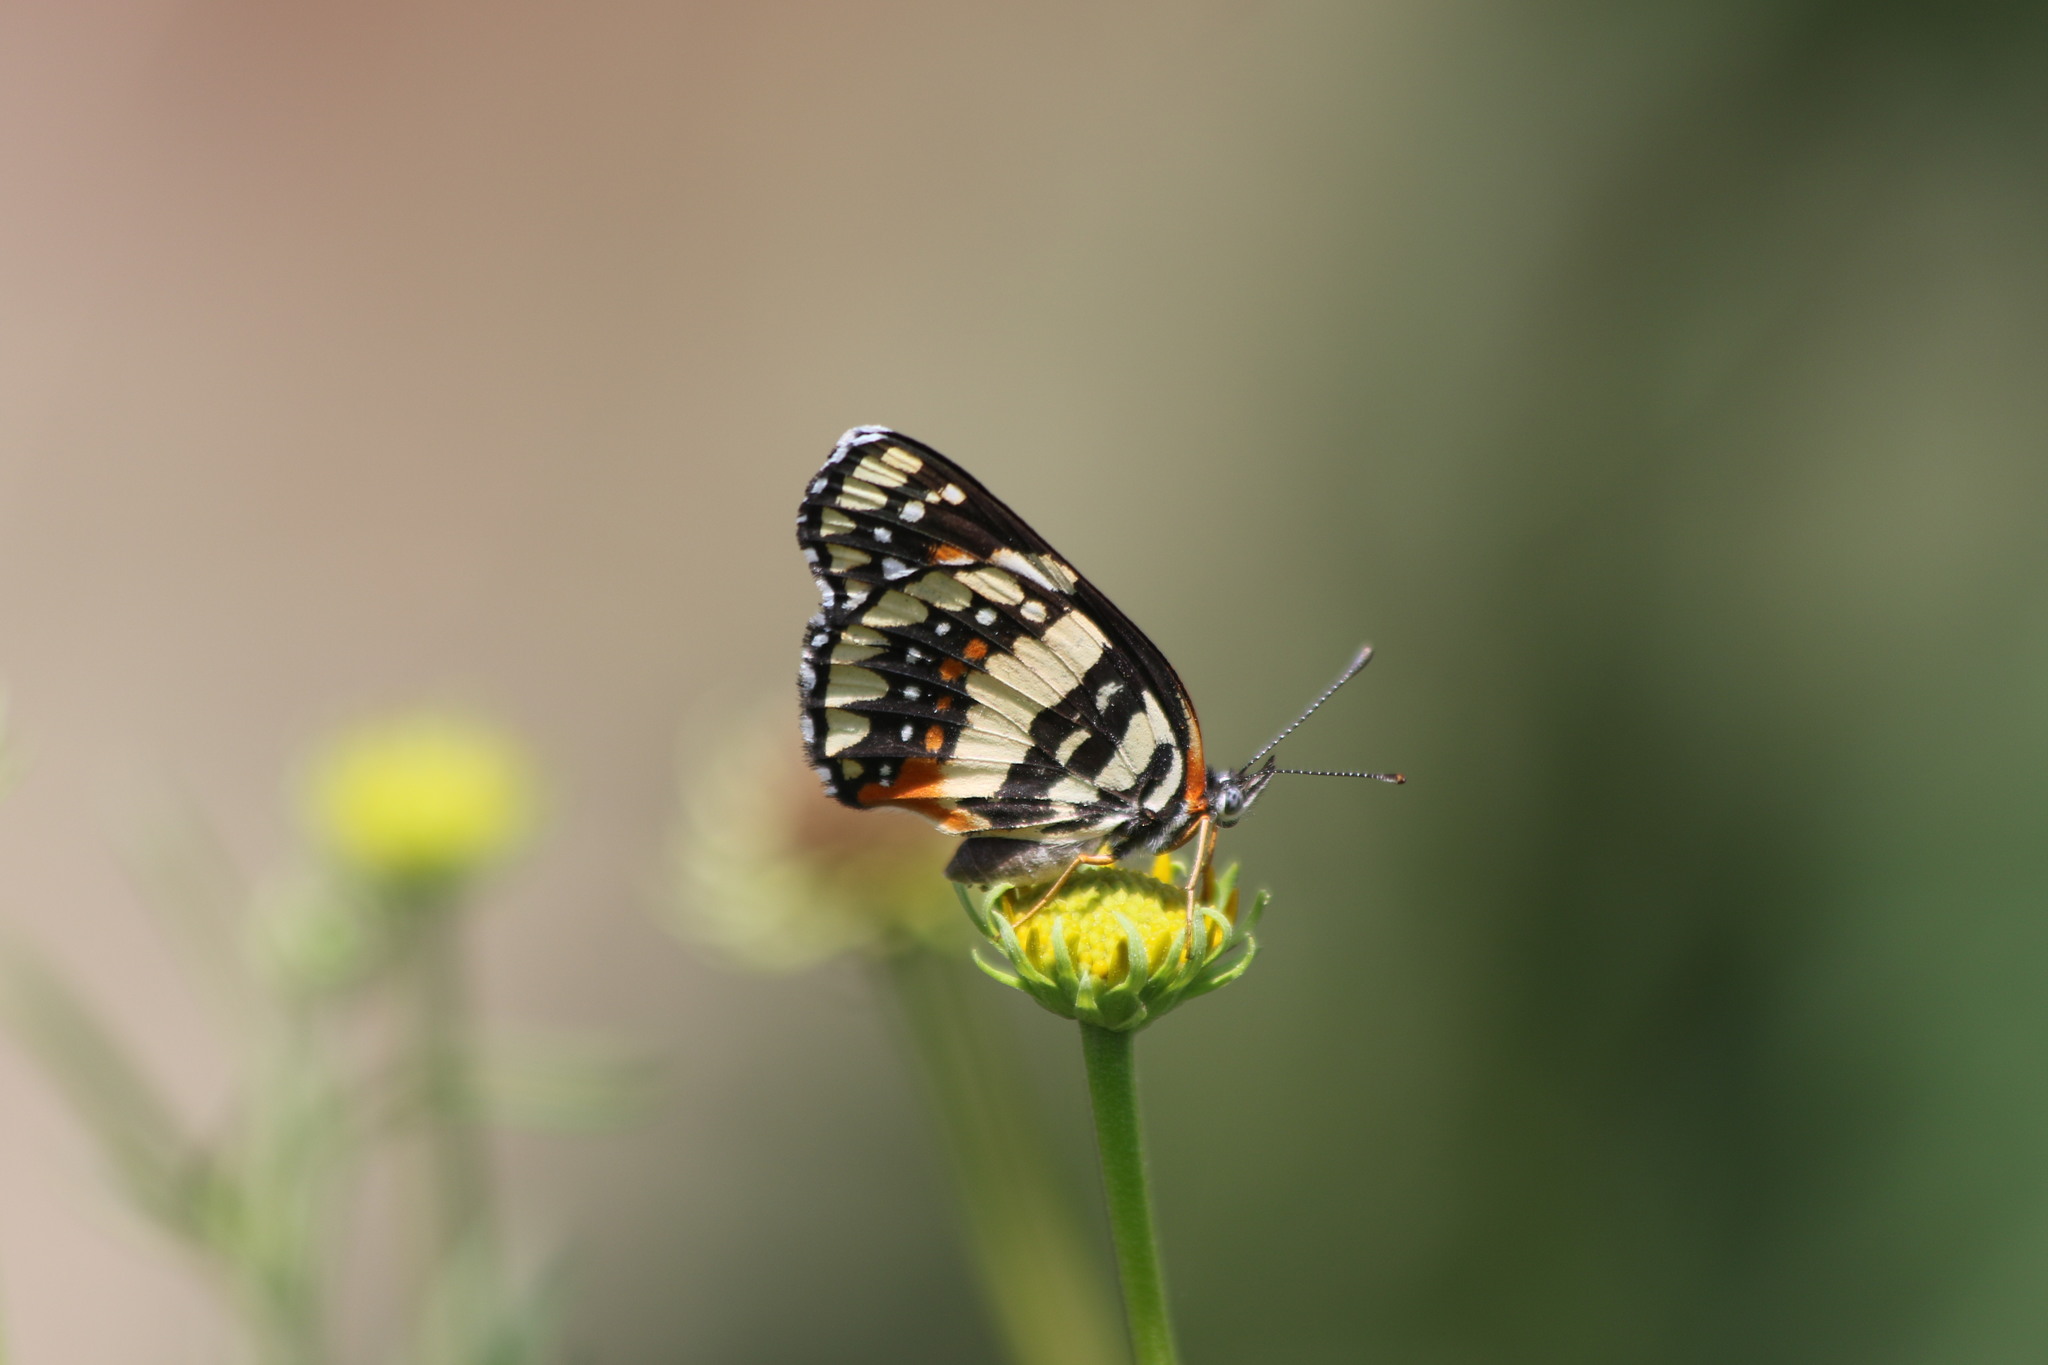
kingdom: Animalia
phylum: Arthropoda
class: Insecta
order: Lepidoptera
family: Nymphalidae
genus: Chlosyne
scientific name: Chlosyne lacinia
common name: Bordered patch
